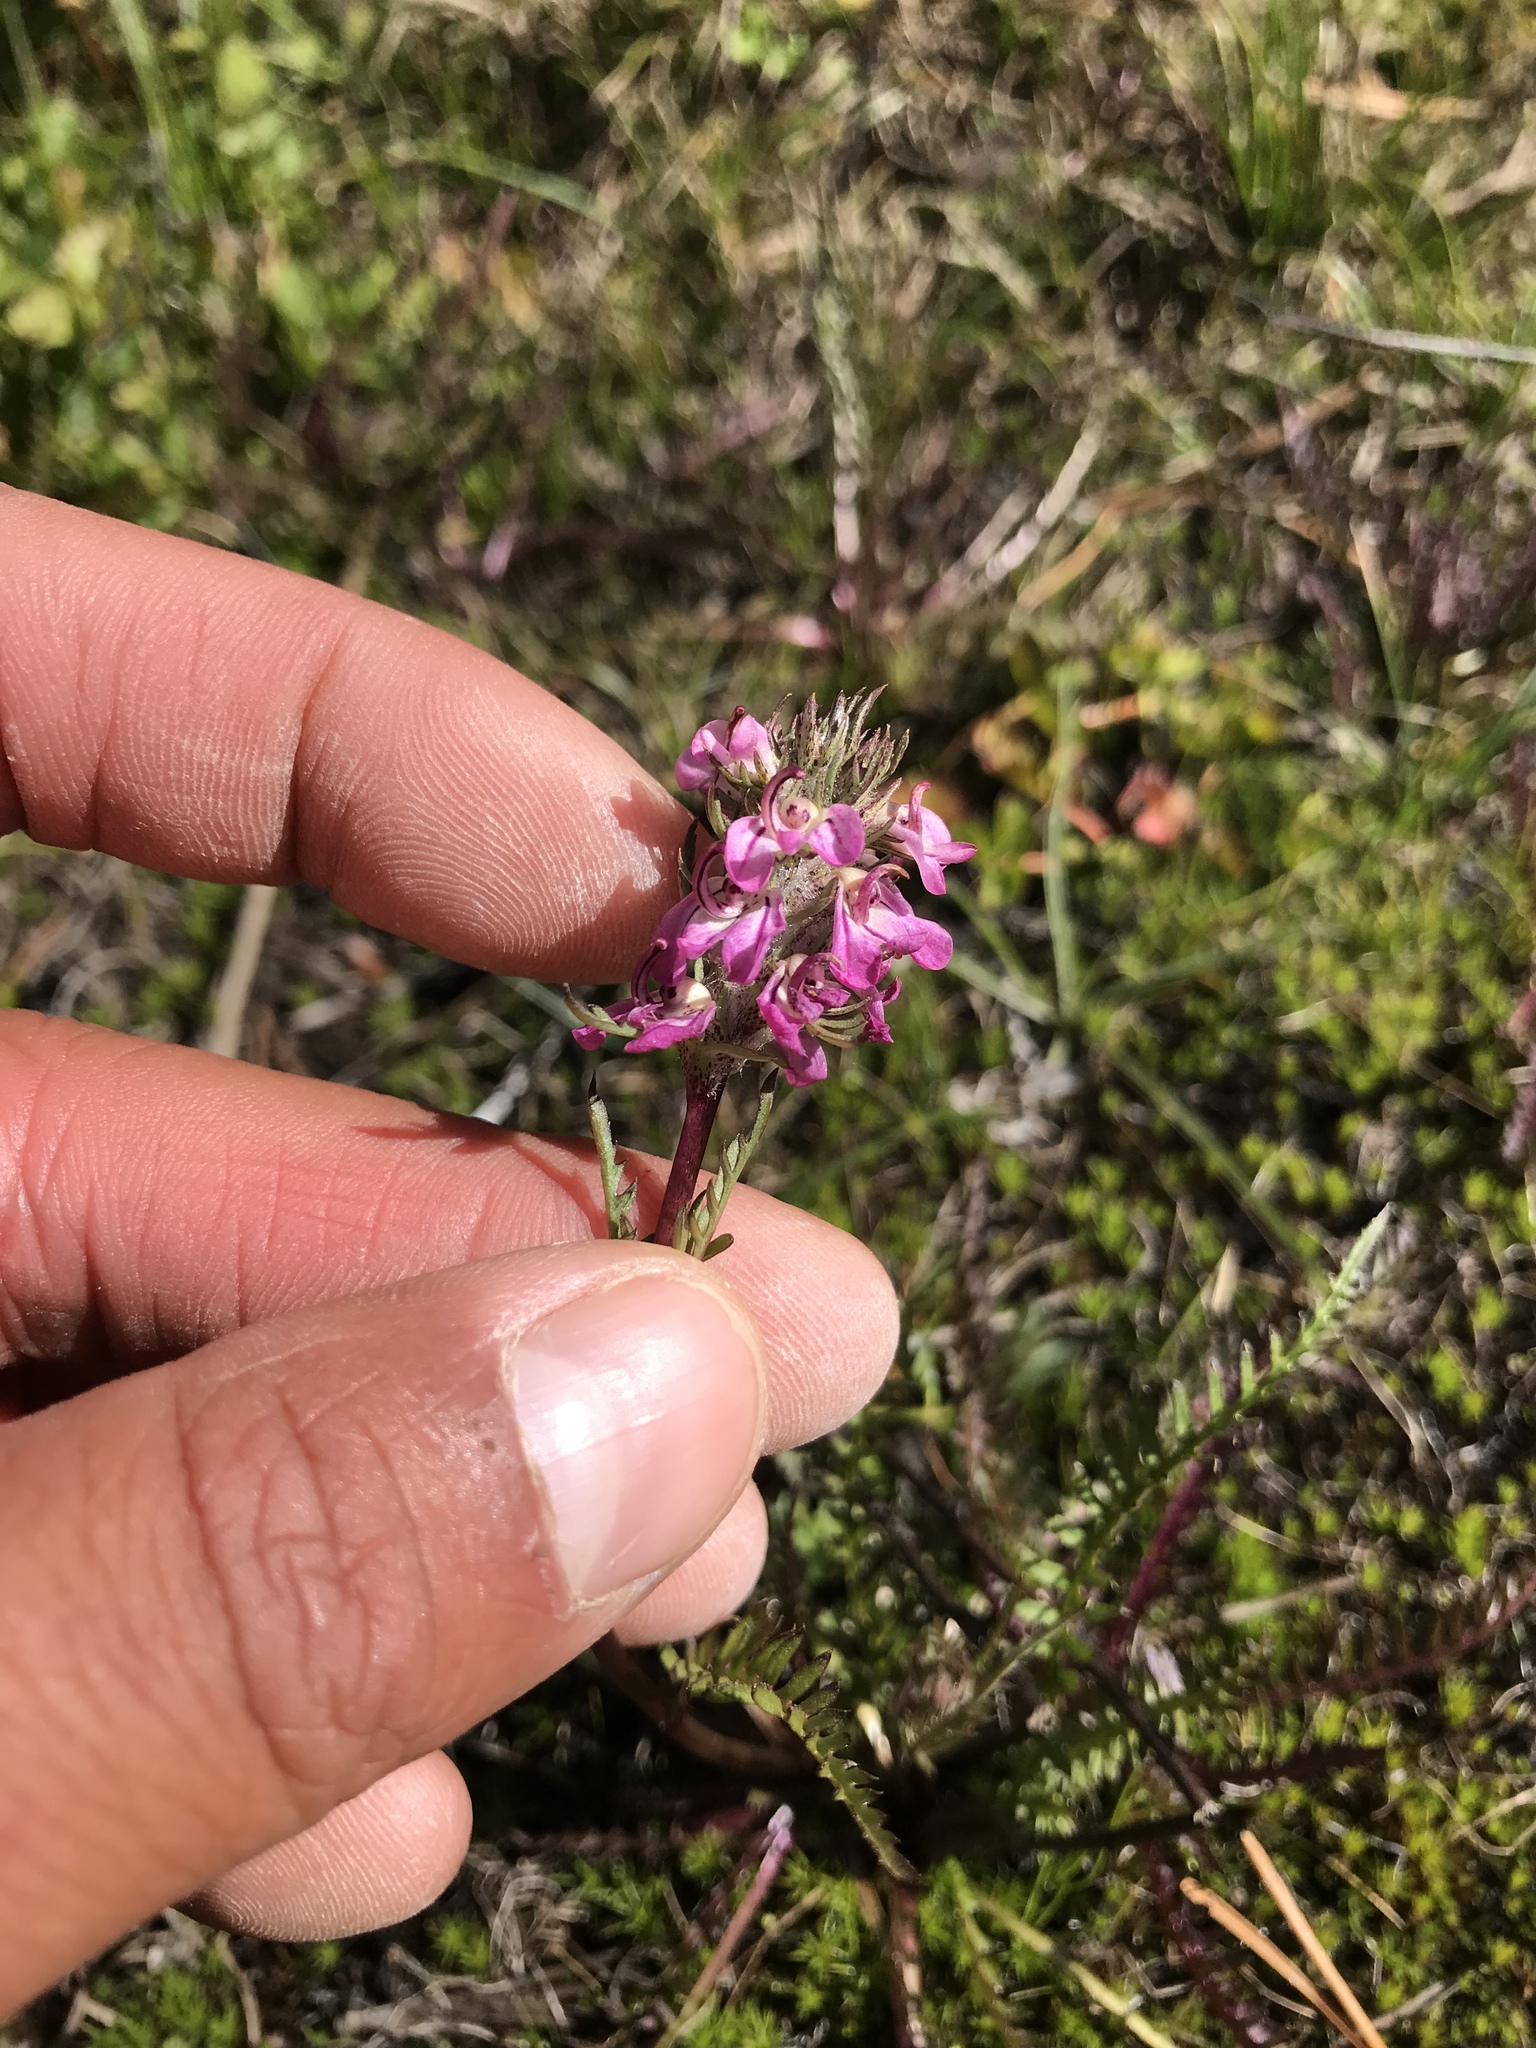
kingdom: Plantae
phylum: Tracheophyta
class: Magnoliopsida
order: Lamiales
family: Orobanchaceae
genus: Pedicularis
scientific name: Pedicularis attollens
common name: Slender pedicularis
